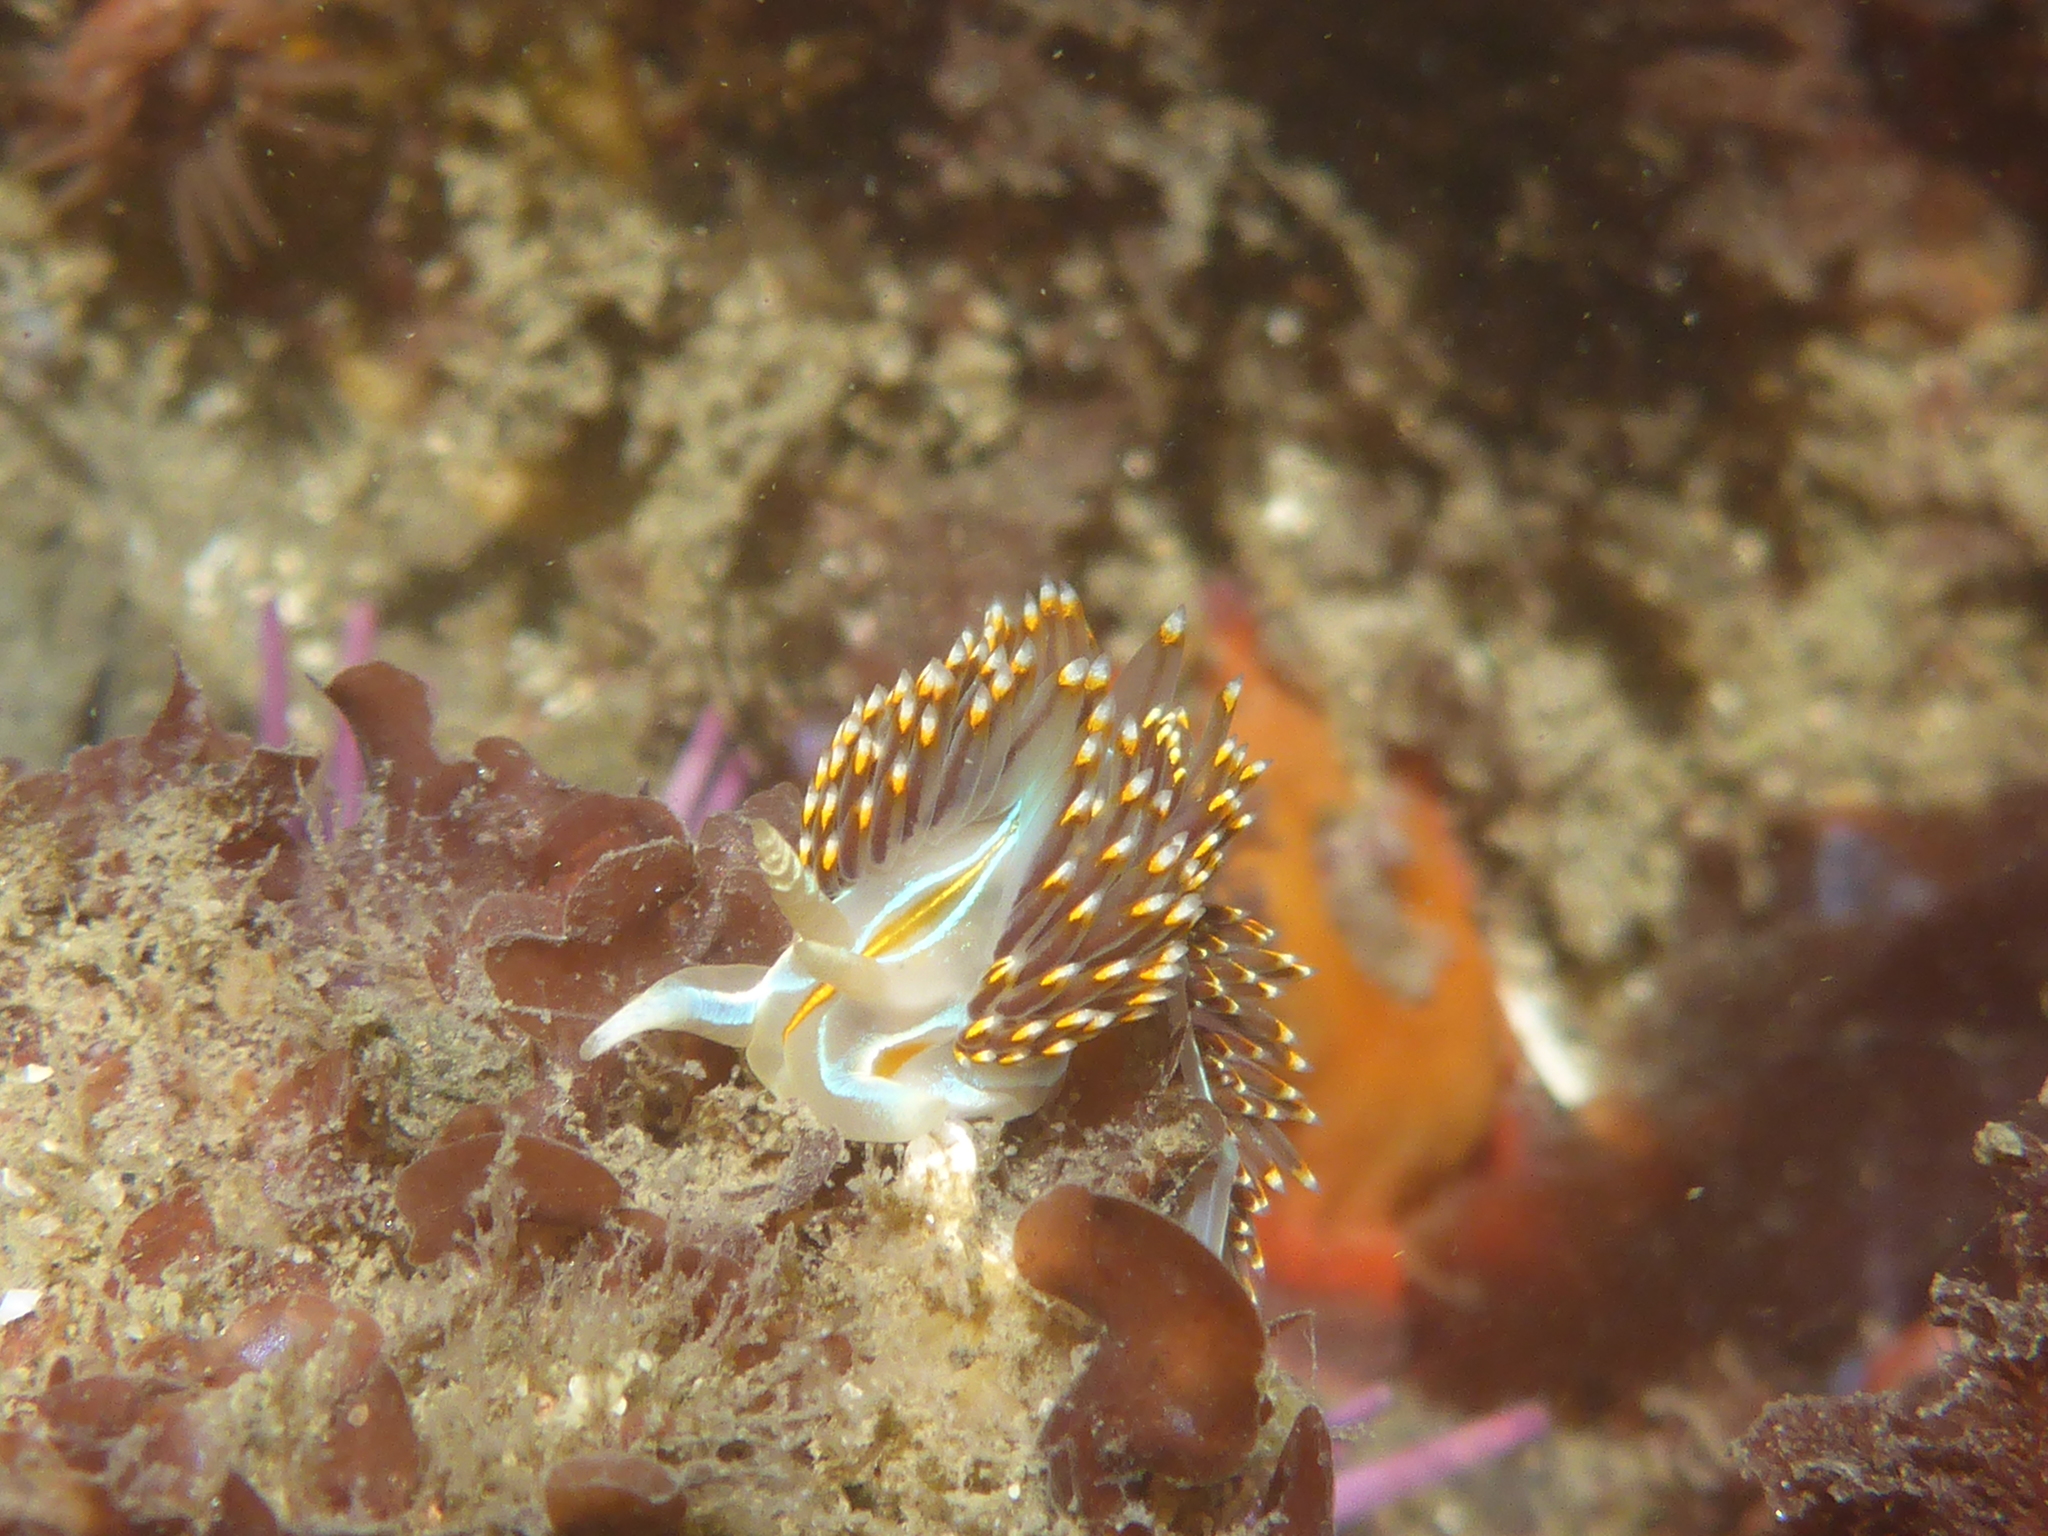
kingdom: Animalia
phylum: Mollusca
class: Gastropoda
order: Nudibranchia
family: Myrrhinidae
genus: Hermissenda
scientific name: Hermissenda opalescens
